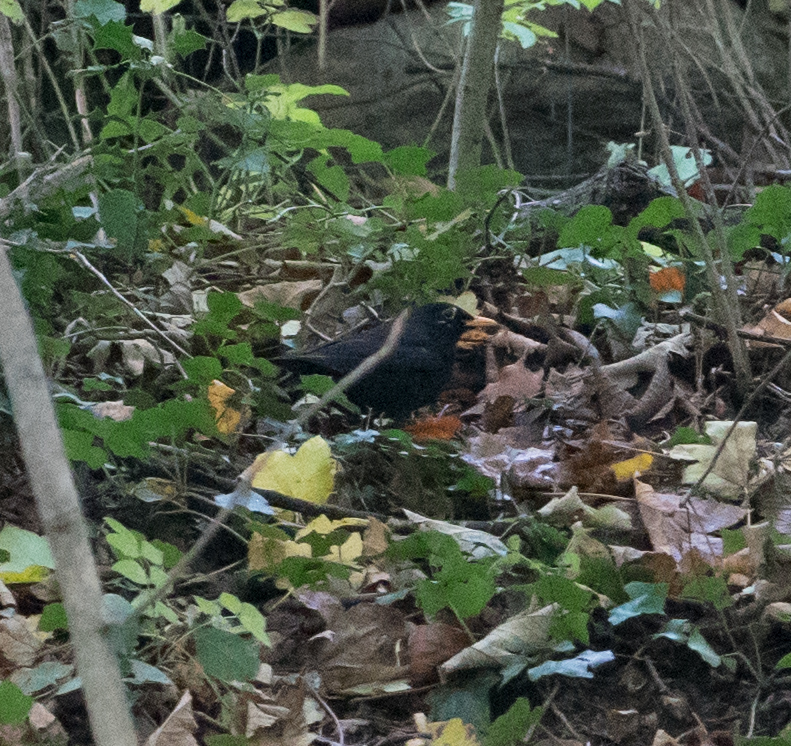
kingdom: Animalia
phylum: Chordata
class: Aves
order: Passeriformes
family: Turdidae
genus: Turdus
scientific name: Turdus merula
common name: Common blackbird
